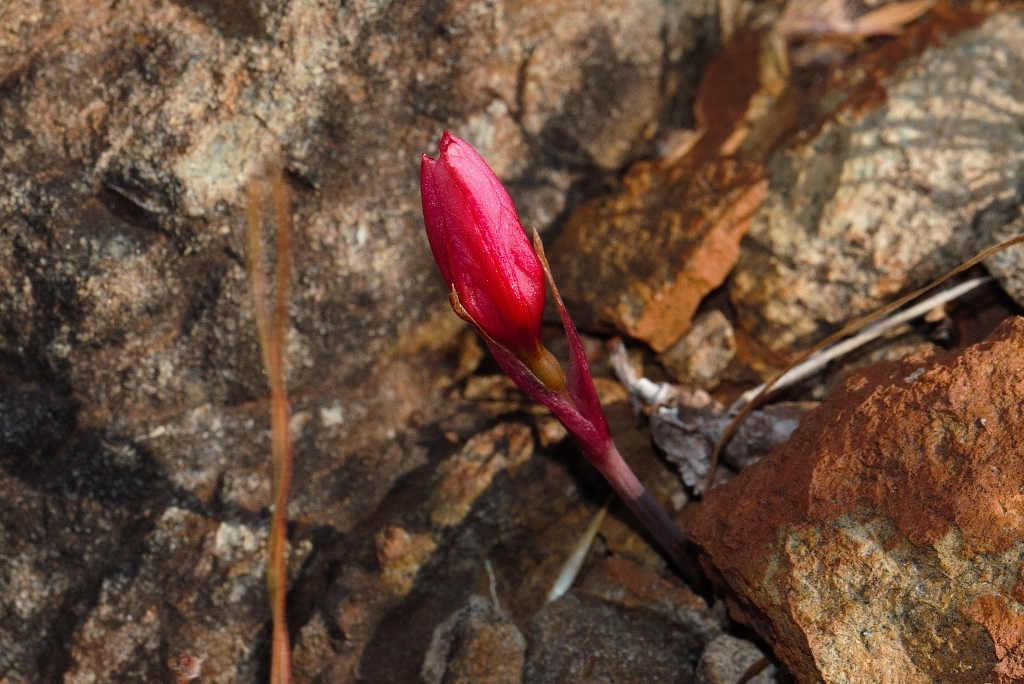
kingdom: Plantae
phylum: Tracheophyta
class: Liliopsida
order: Asparagales
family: Amaryllidaceae
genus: Cyrtanthus
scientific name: Cyrtanthus galpinii
